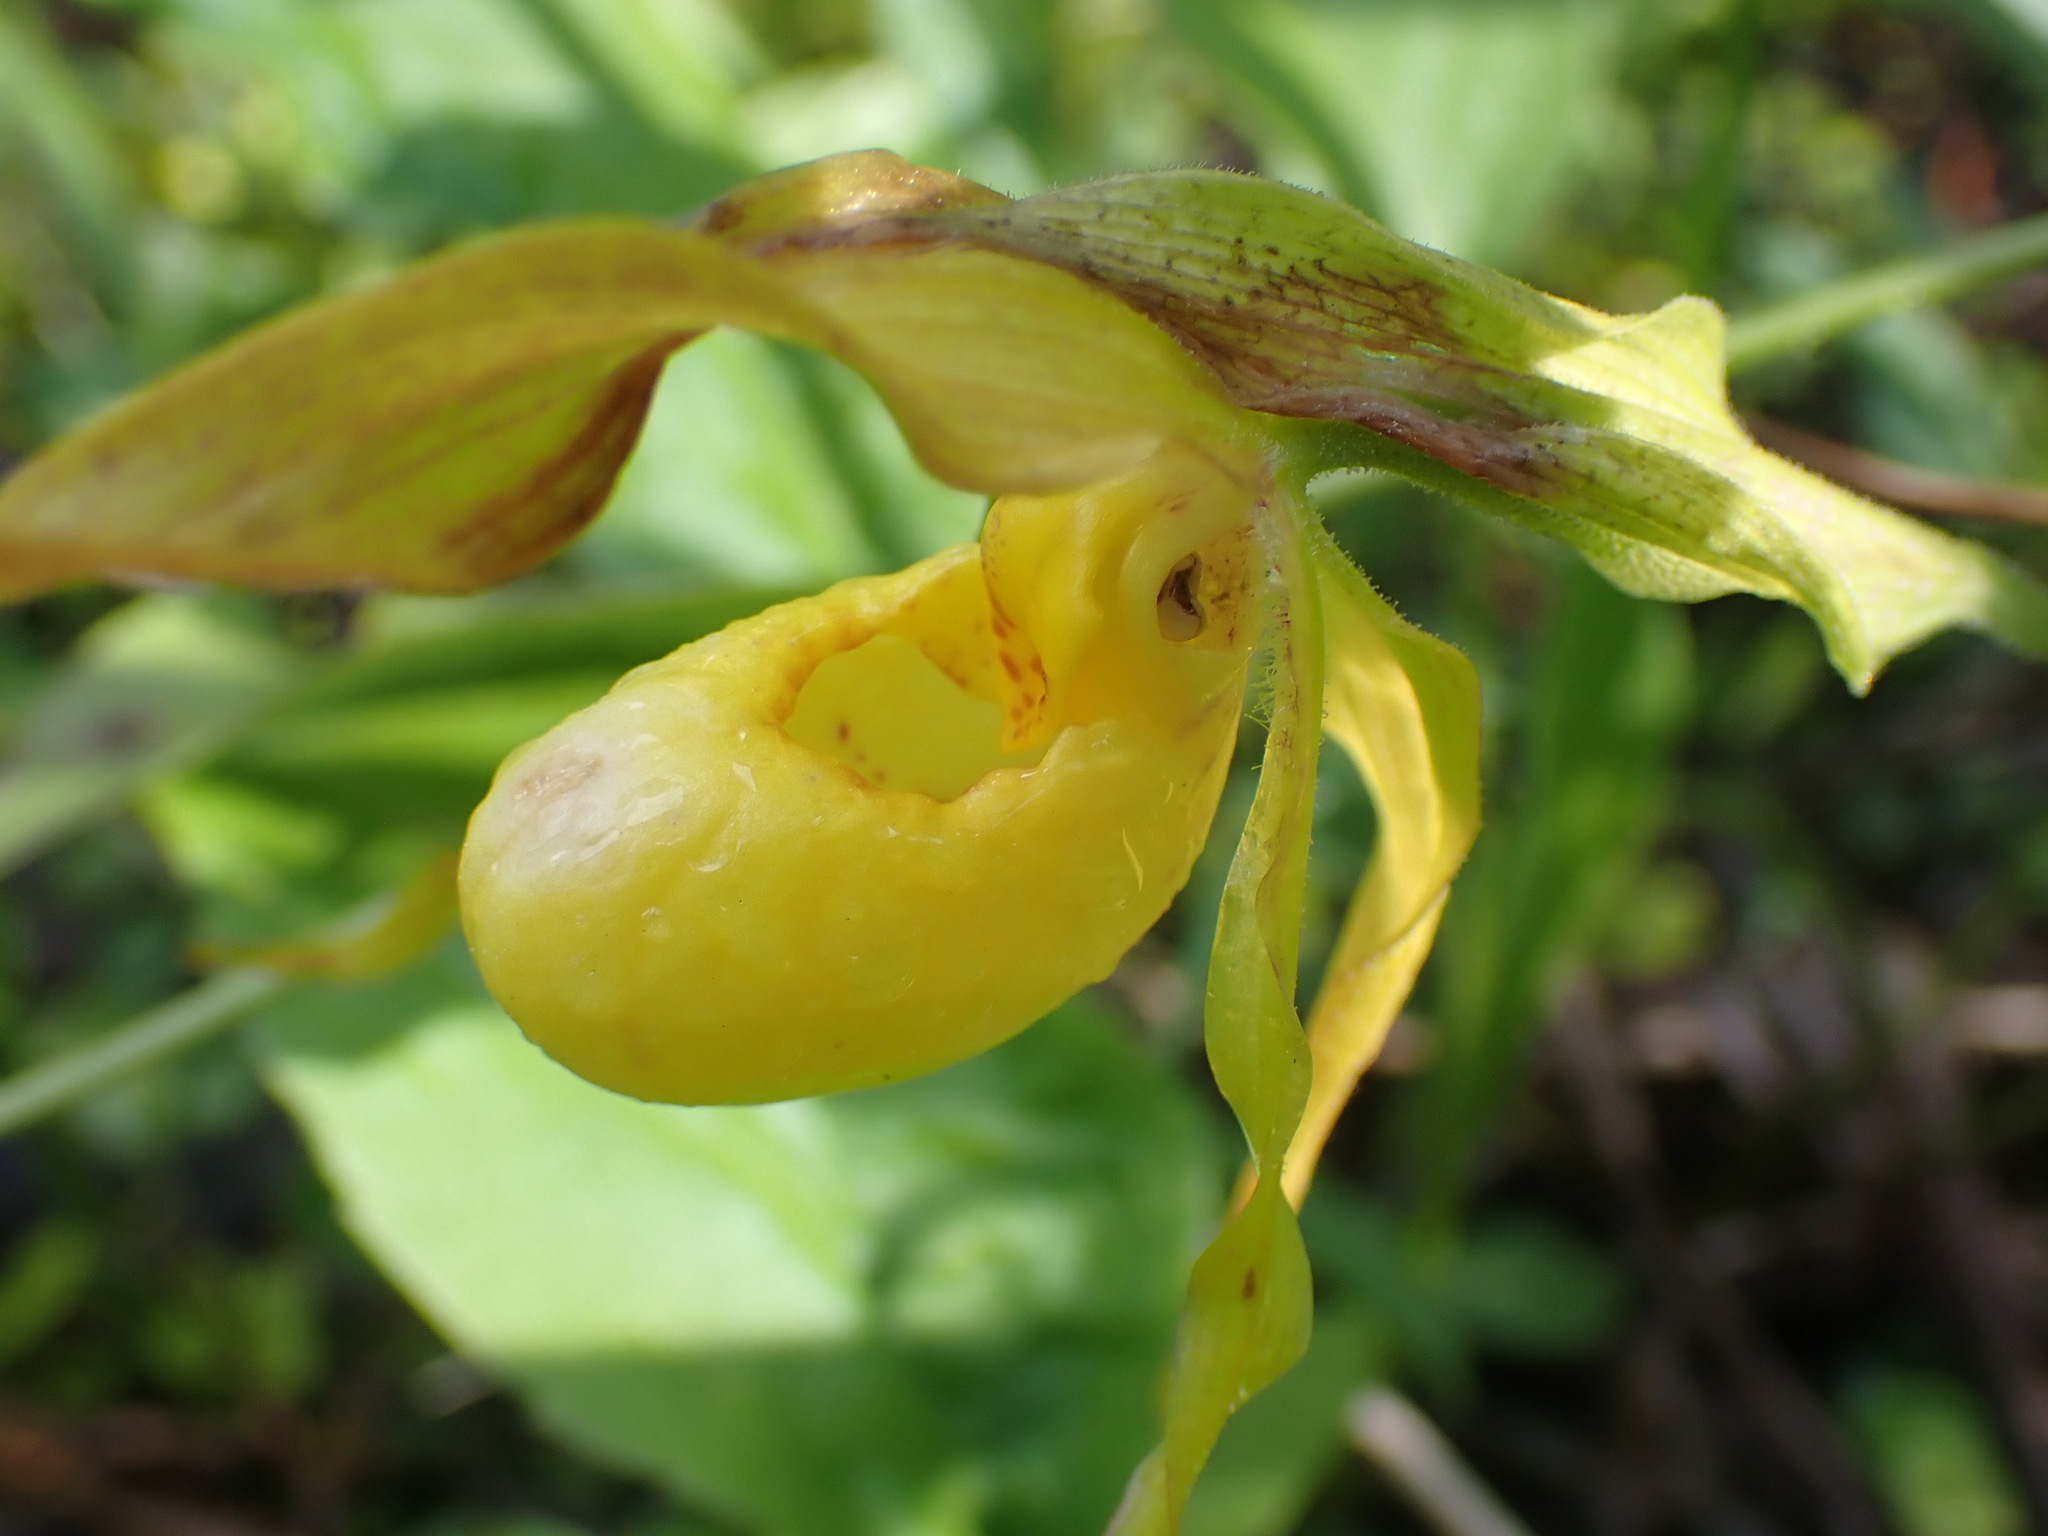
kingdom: Plantae
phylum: Tracheophyta
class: Liliopsida
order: Asparagales
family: Orchidaceae
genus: Cypripedium
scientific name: Cypripedium parviflorum
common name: American yellow lady's-slipper
